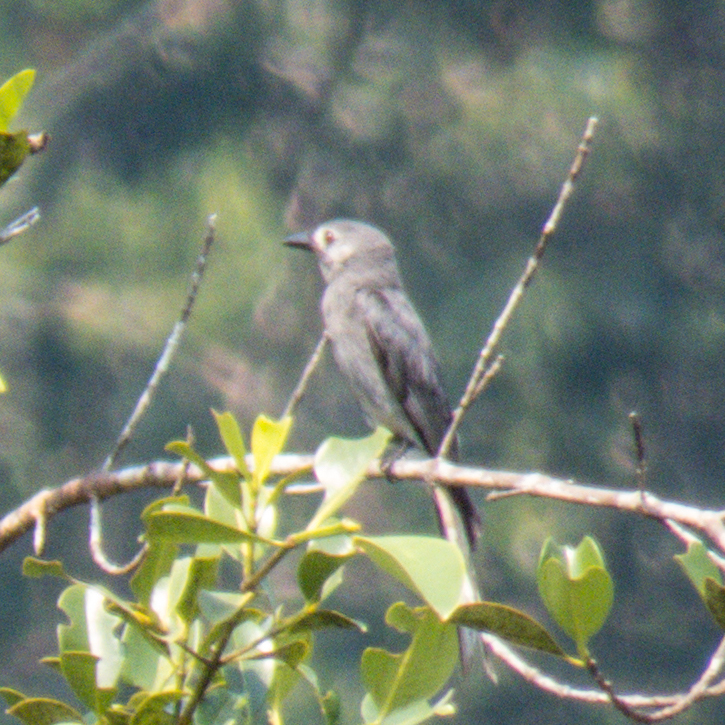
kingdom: Animalia
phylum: Chordata
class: Aves
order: Passeriformes
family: Dicruridae
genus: Dicrurus
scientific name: Dicrurus leucophaeus
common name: Ashy drongo
